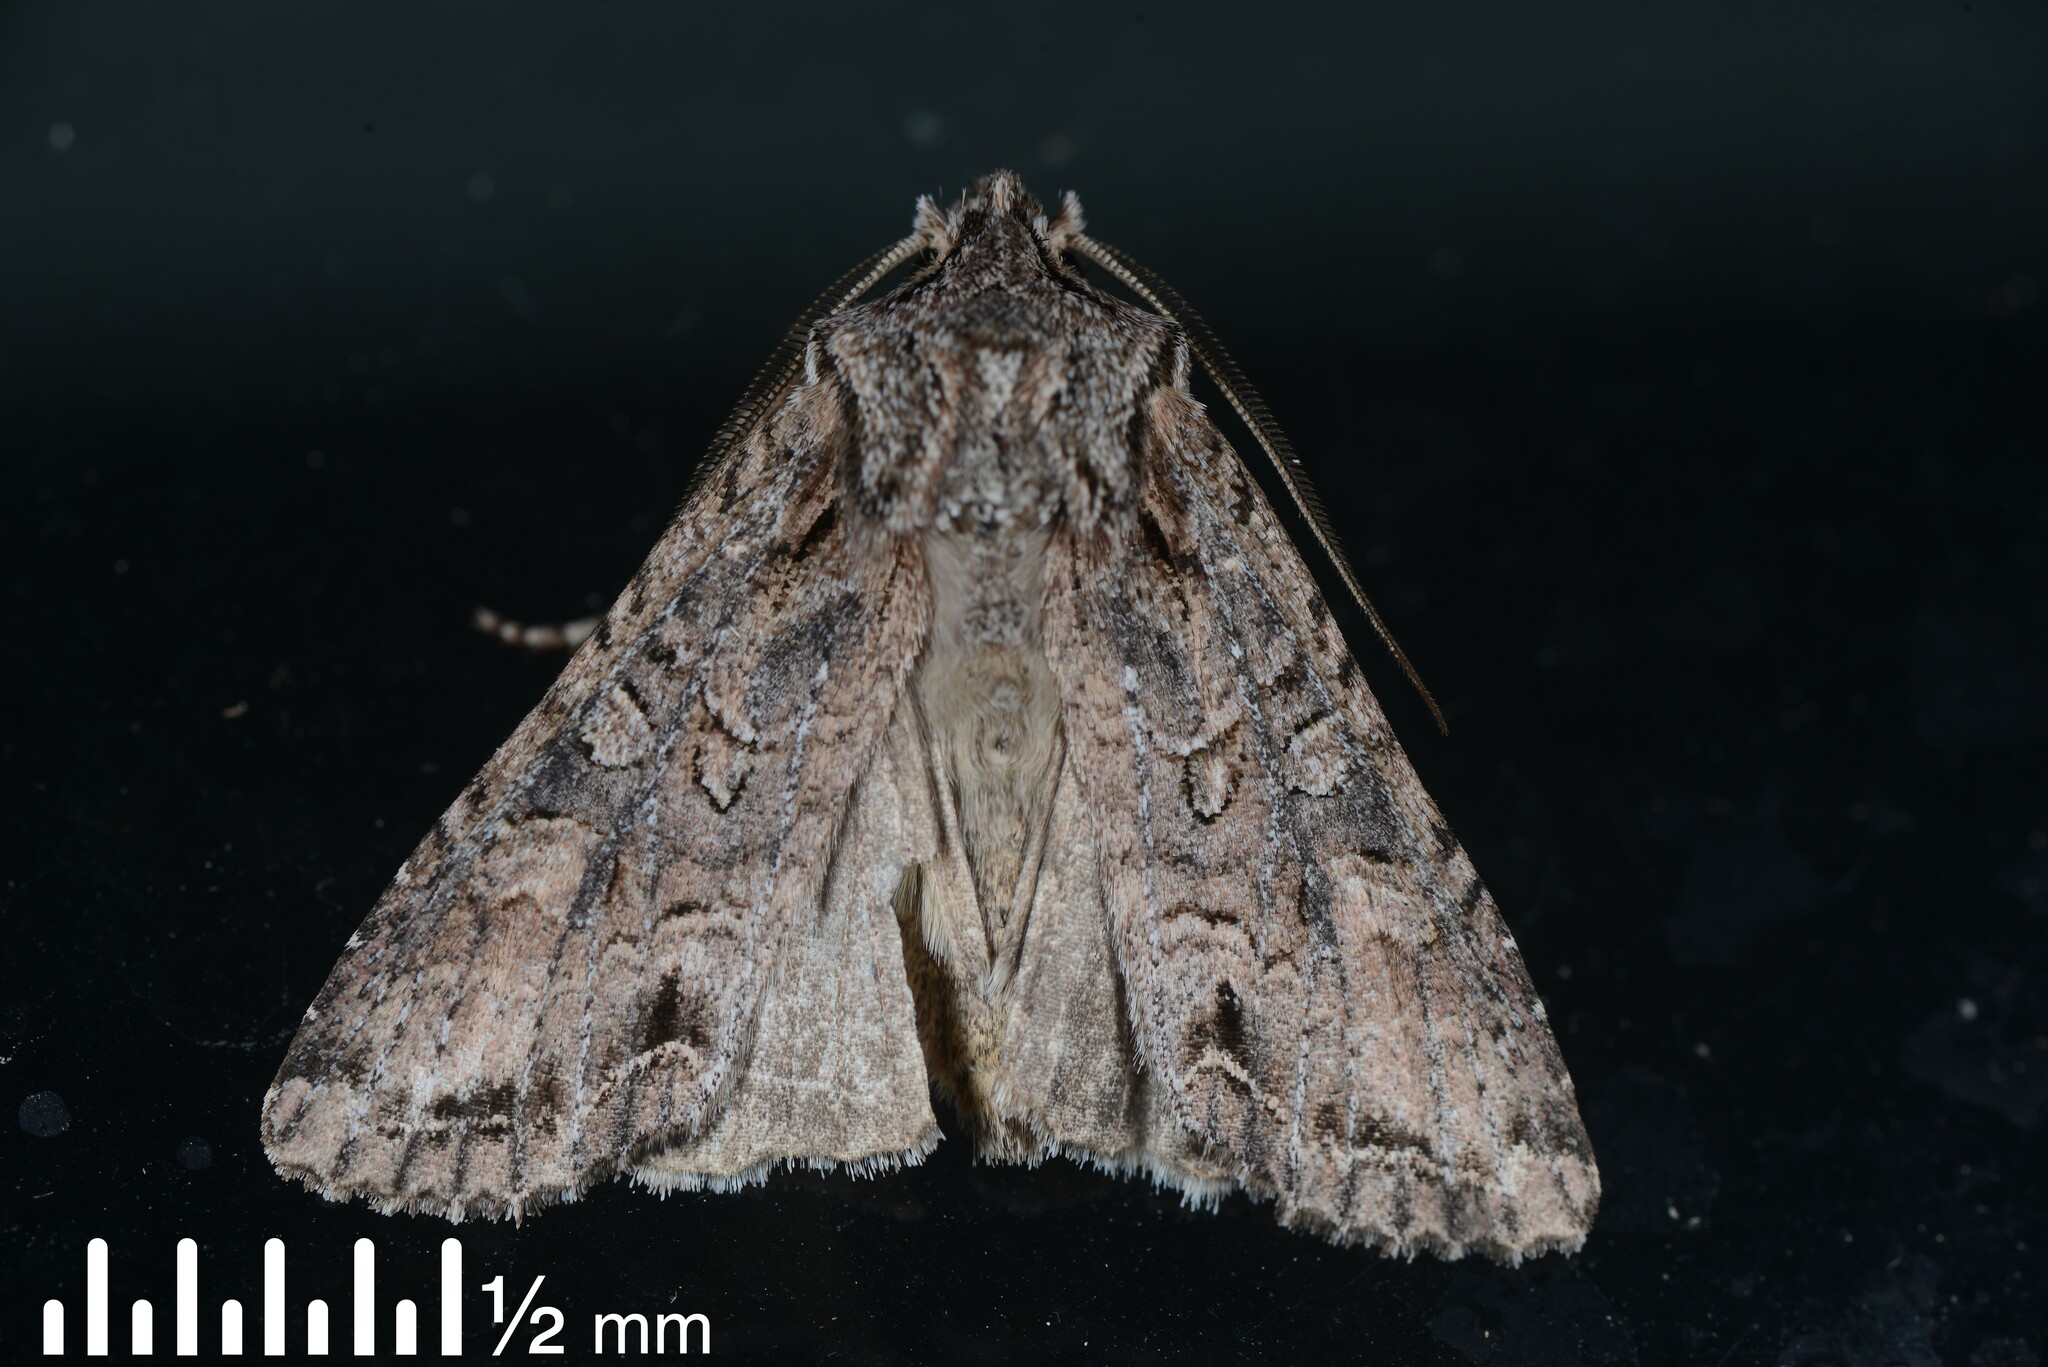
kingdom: Animalia
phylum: Arthropoda
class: Insecta
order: Lepidoptera
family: Noctuidae
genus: Ichneutica
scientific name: Ichneutica mutans
